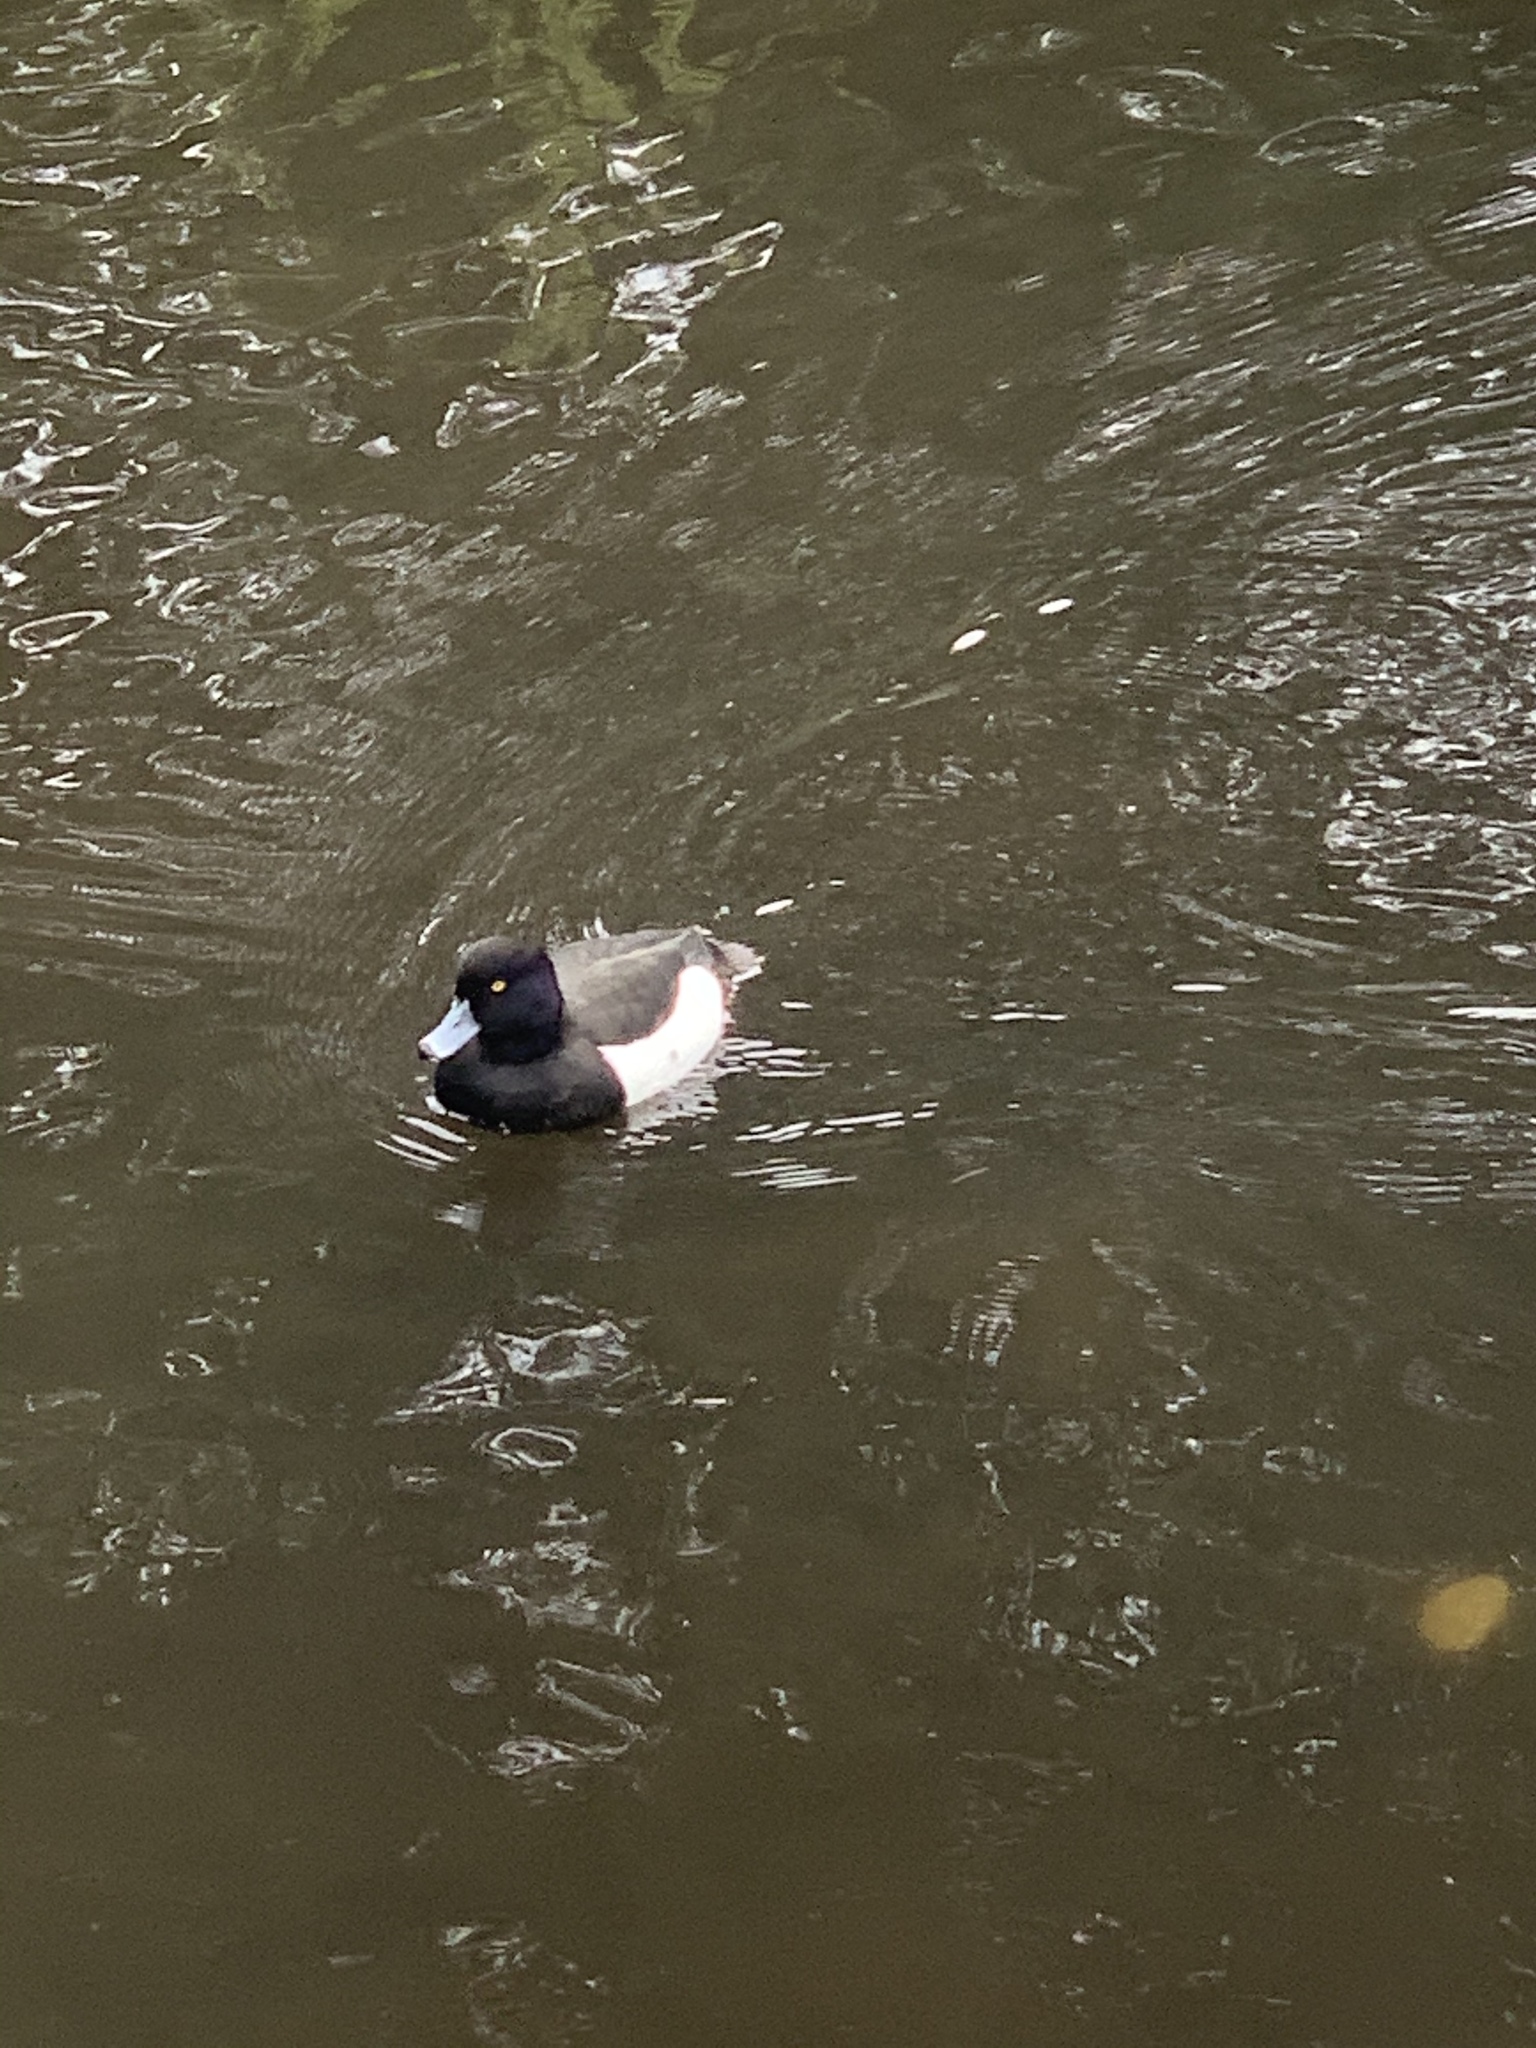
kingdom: Animalia
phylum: Chordata
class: Aves
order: Anseriformes
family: Anatidae
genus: Aythya
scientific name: Aythya fuligula
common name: Tufted duck
